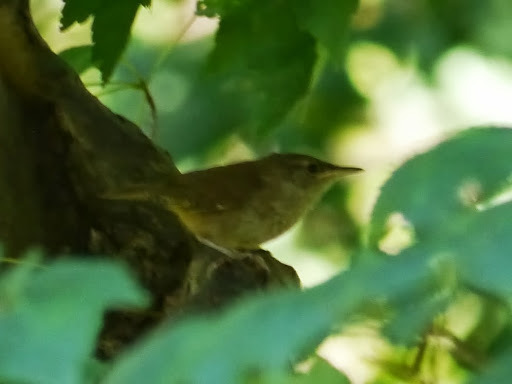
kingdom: Animalia
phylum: Chordata
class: Aves
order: Passeriformes
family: Troglodytidae
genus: Troglodytes
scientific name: Troglodytes aedon
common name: House wren
